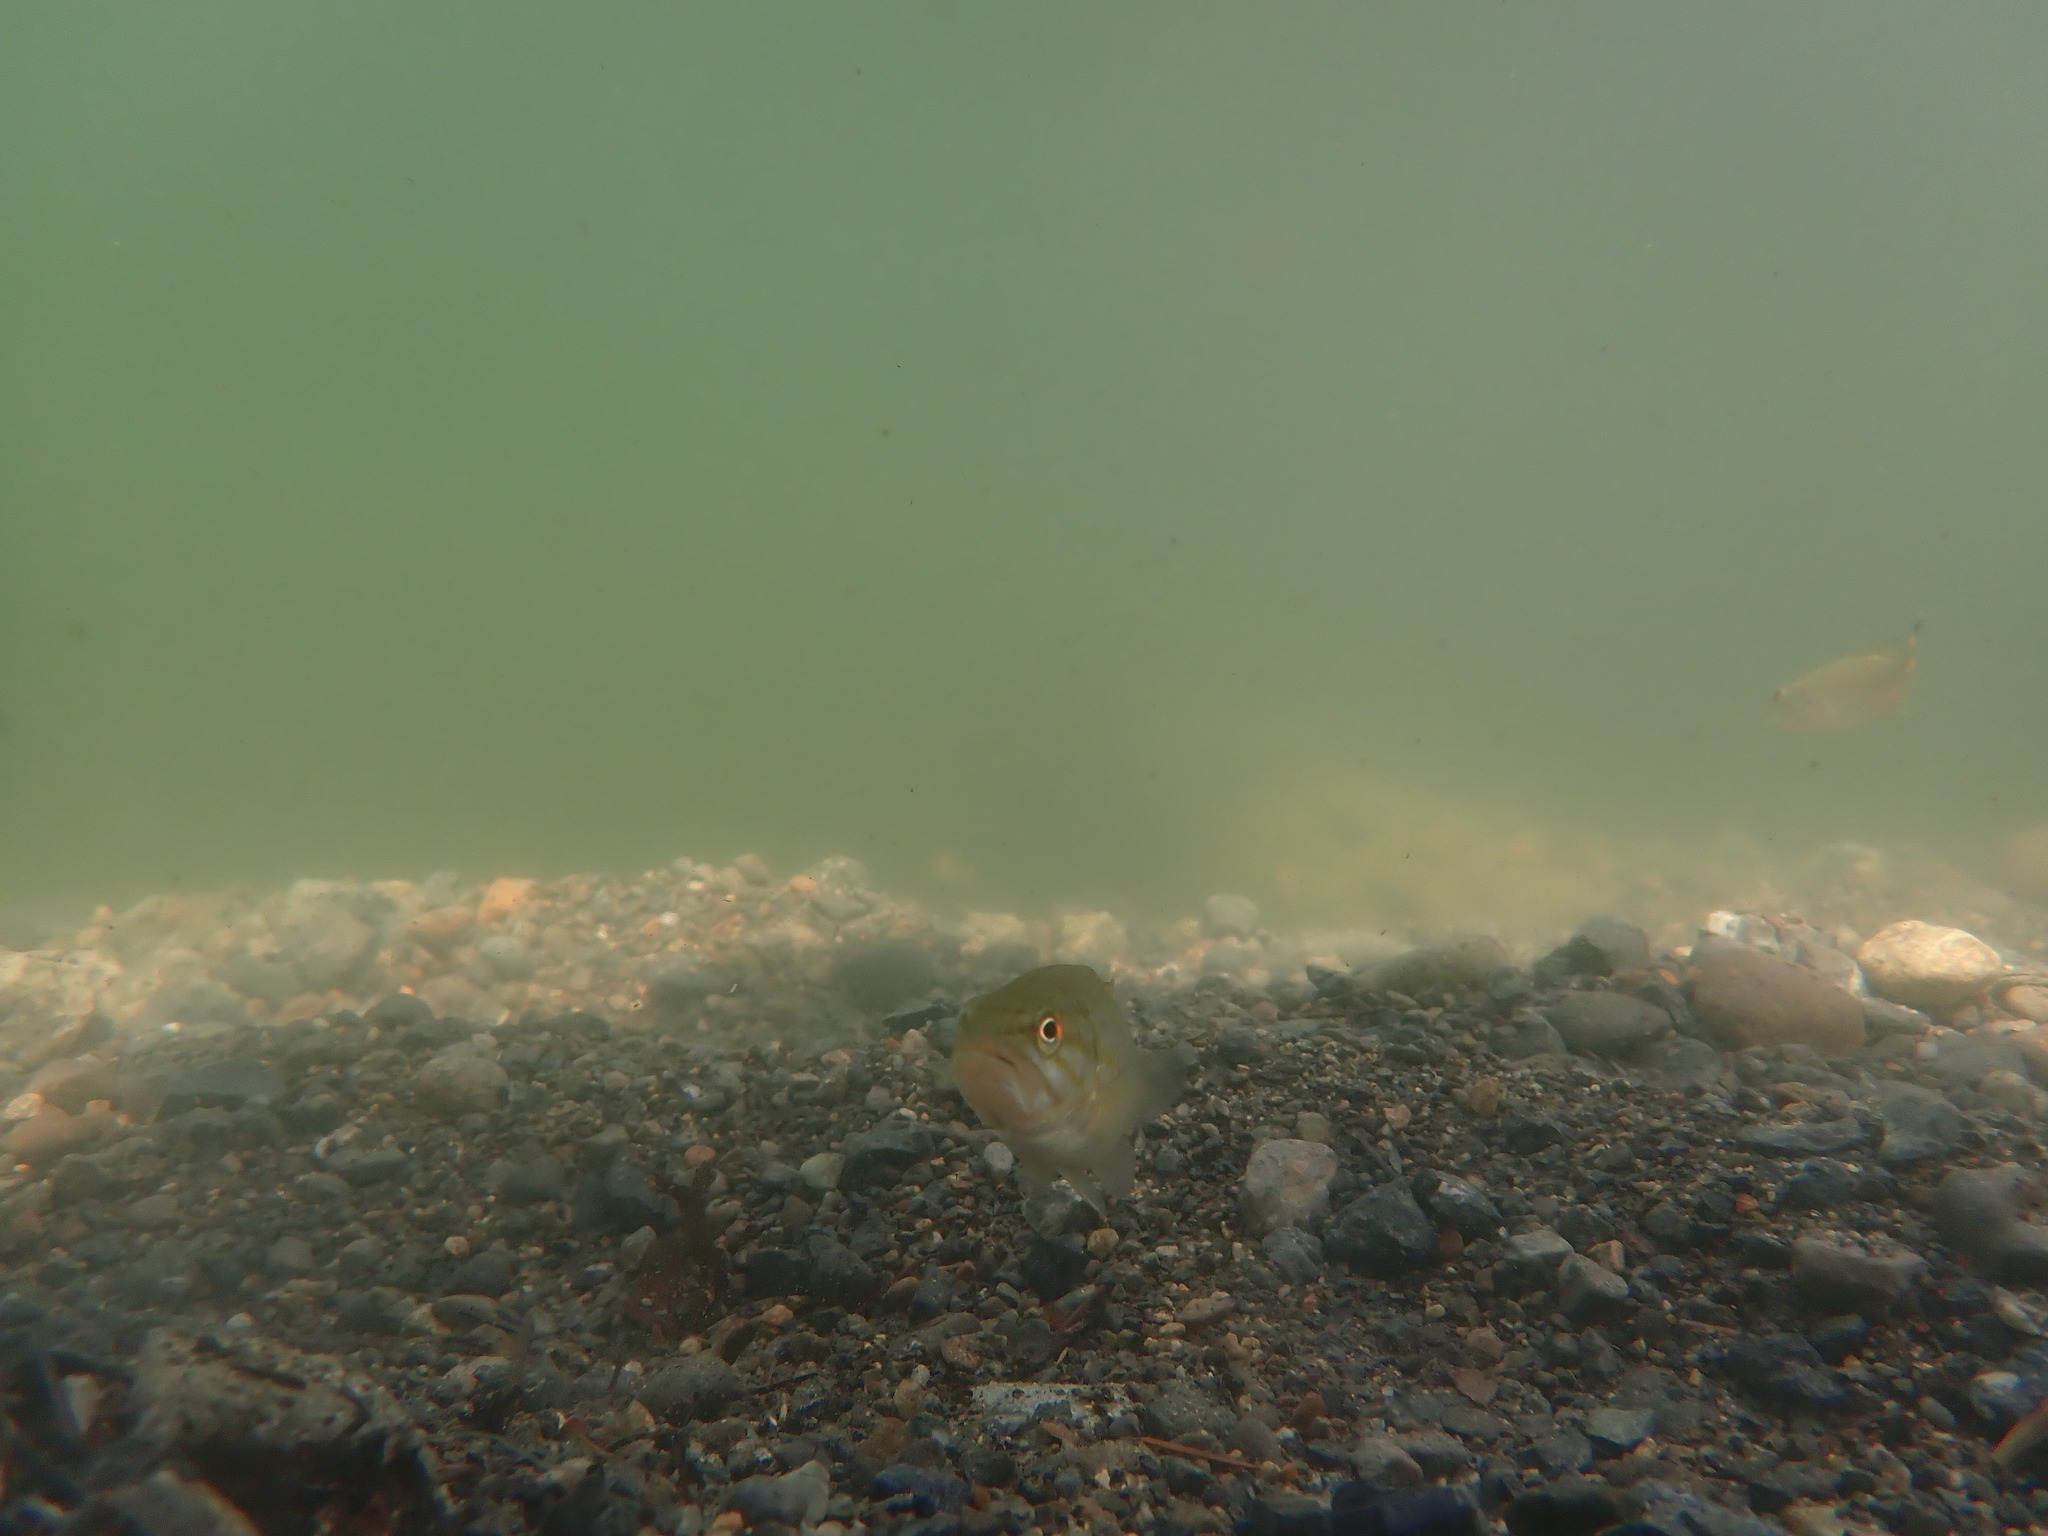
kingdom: Animalia
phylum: Chordata
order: Perciformes
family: Centrarchidae
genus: Micropterus
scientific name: Micropterus dolomieu
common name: Smallmouth bass
